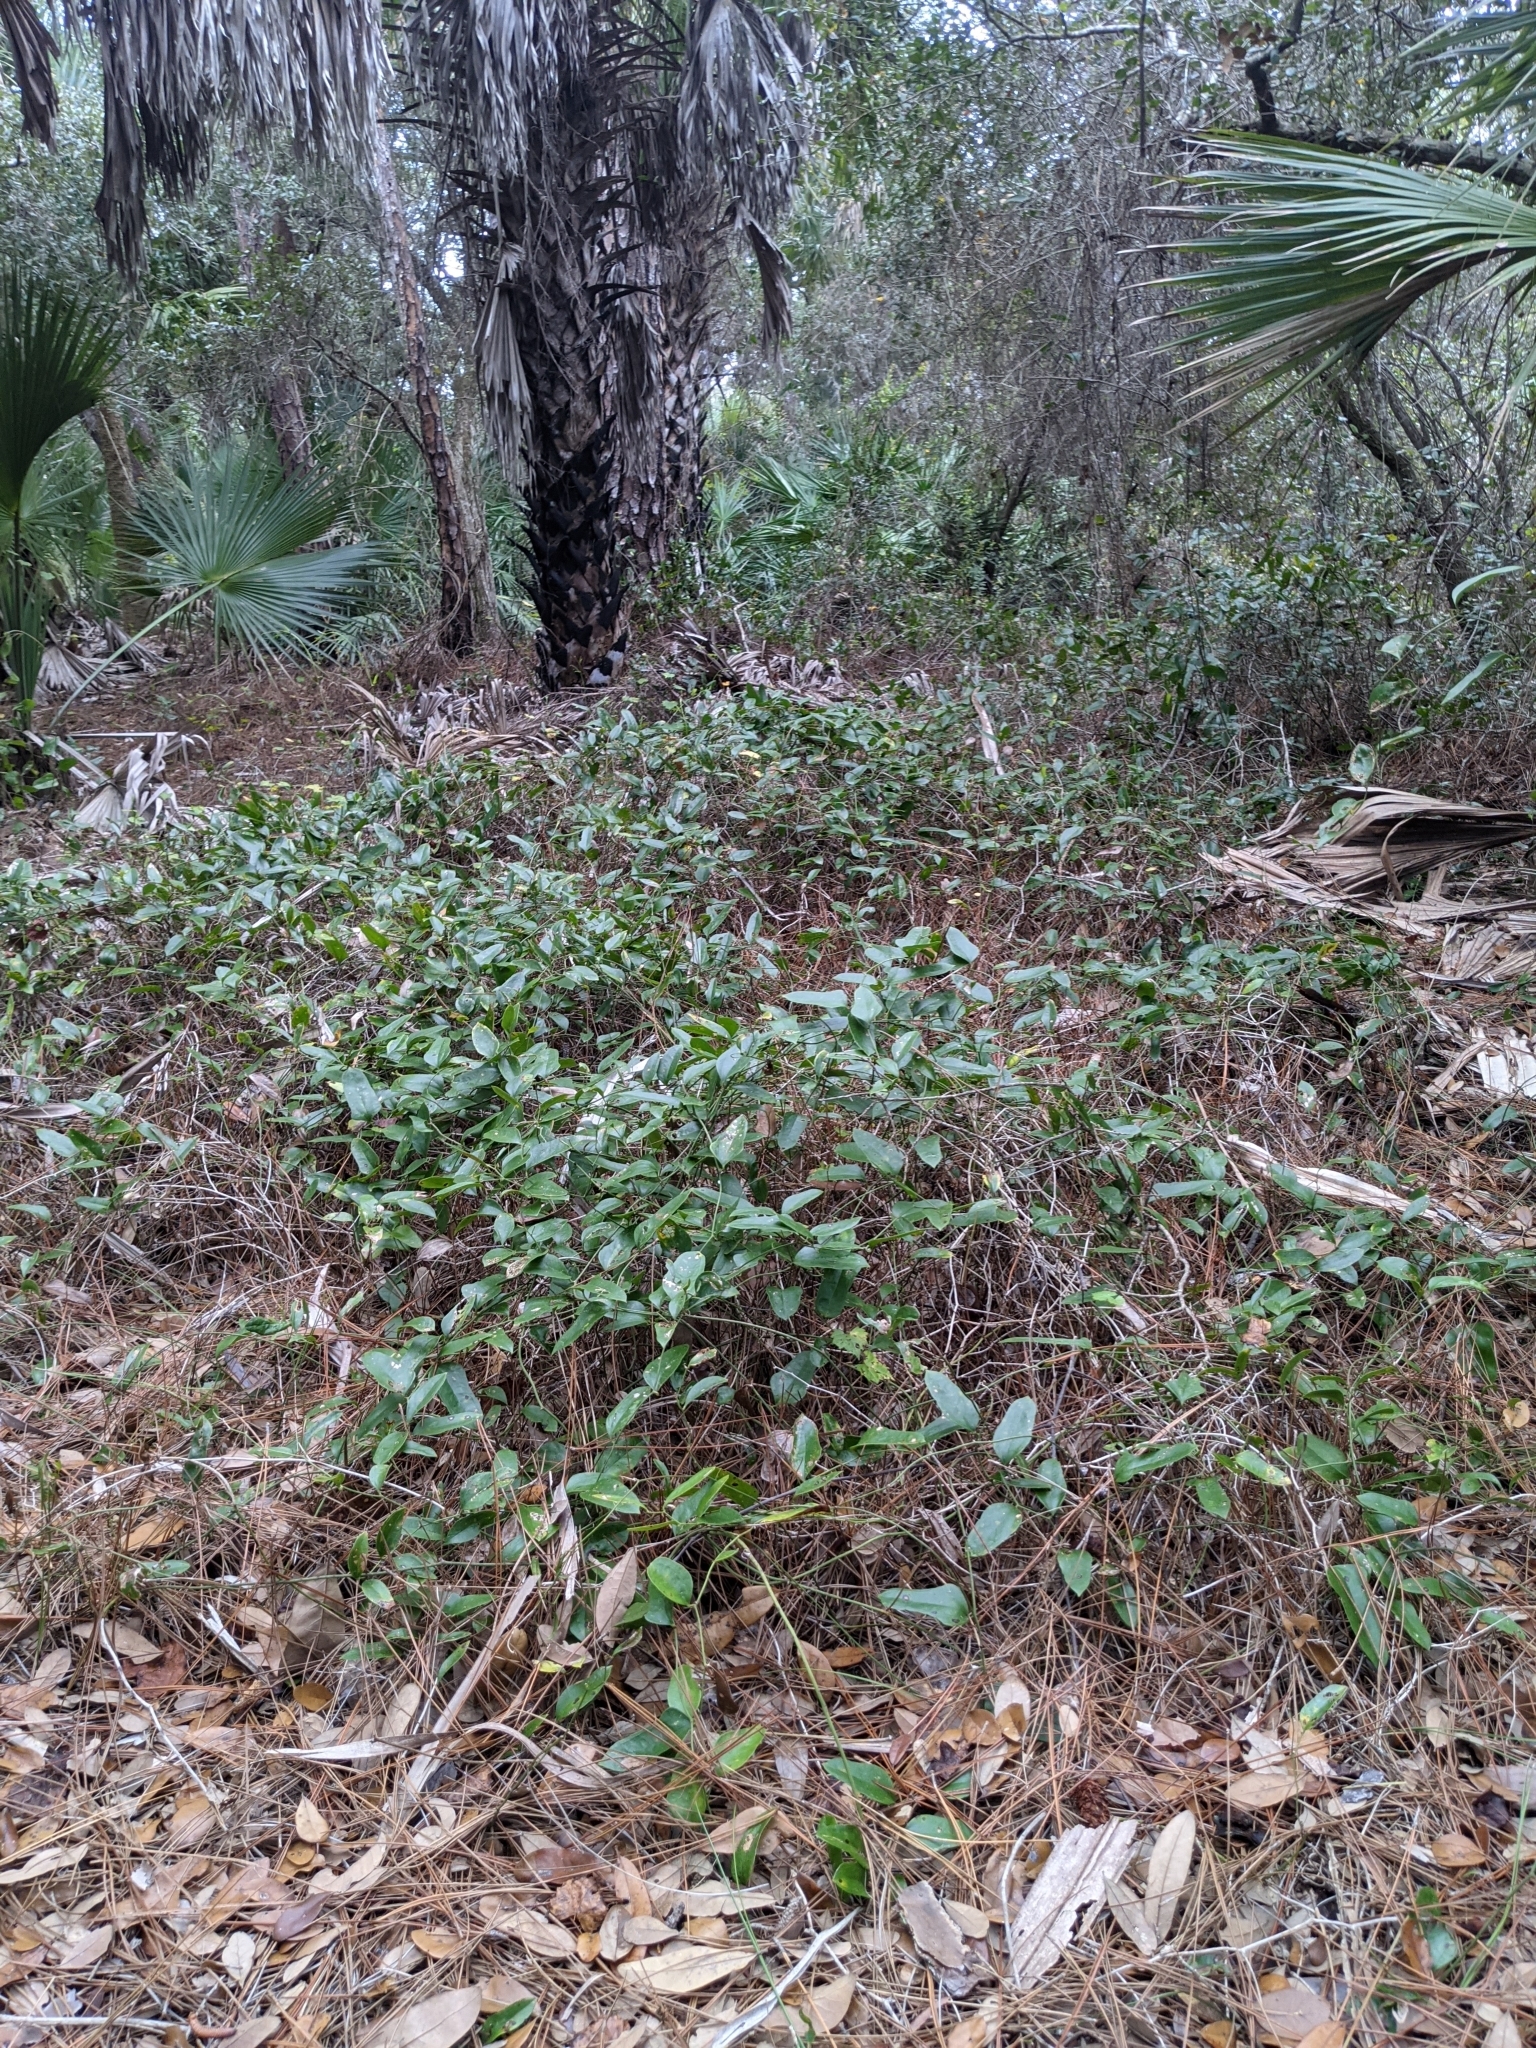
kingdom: Plantae
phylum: Tracheophyta
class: Liliopsida
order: Liliales
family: Smilacaceae
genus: Smilax
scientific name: Smilax auriculata
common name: Wild bamboo
